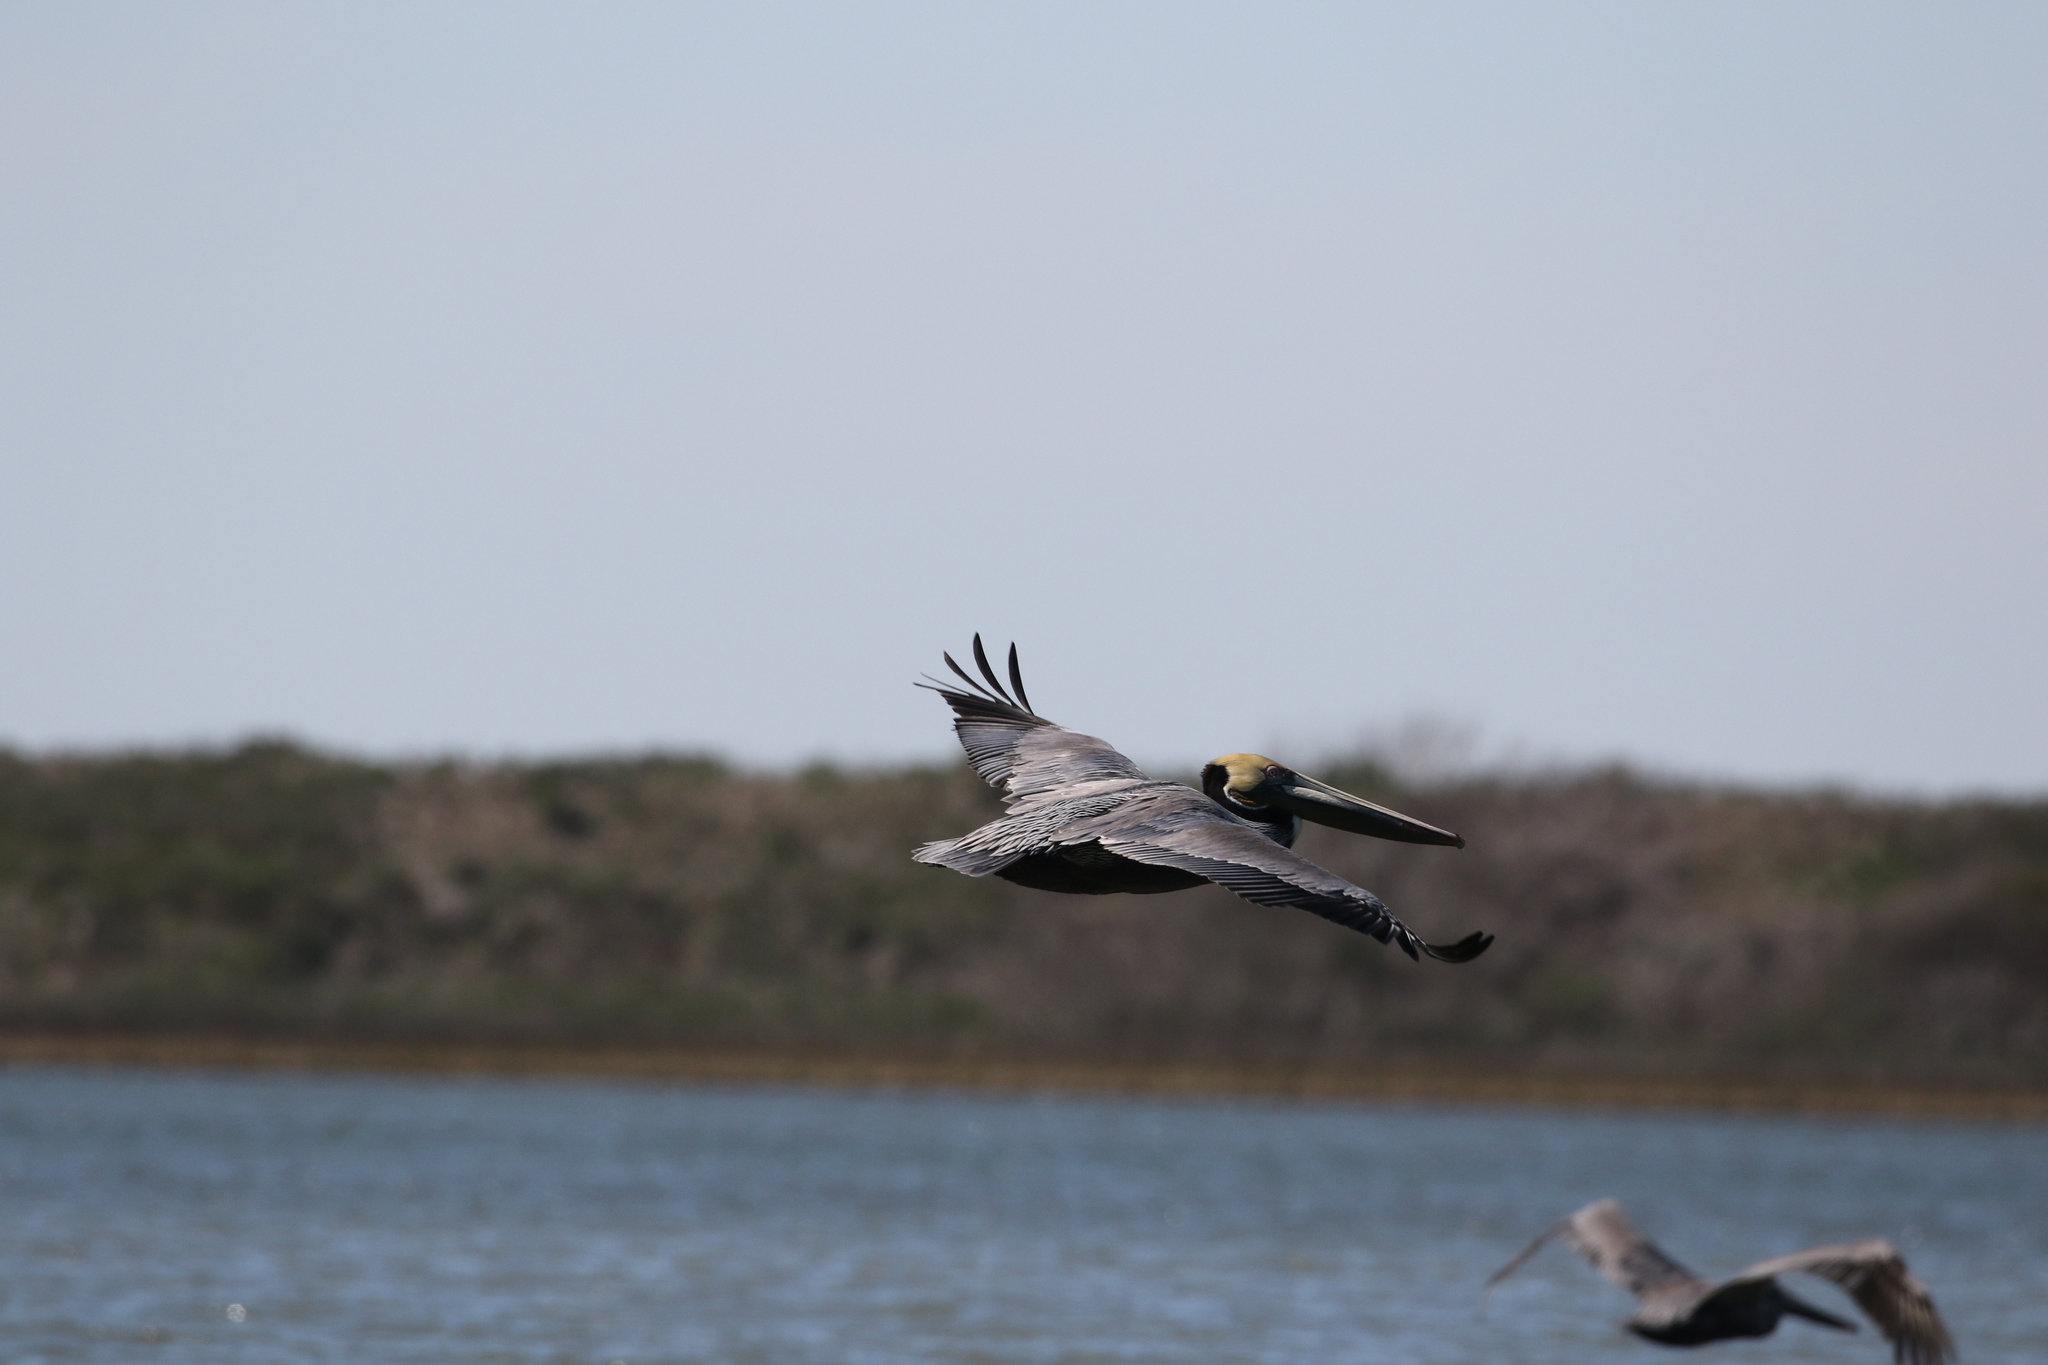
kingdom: Animalia
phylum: Chordata
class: Aves
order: Pelecaniformes
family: Pelecanidae
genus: Pelecanus
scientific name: Pelecanus occidentalis
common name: Brown pelican
